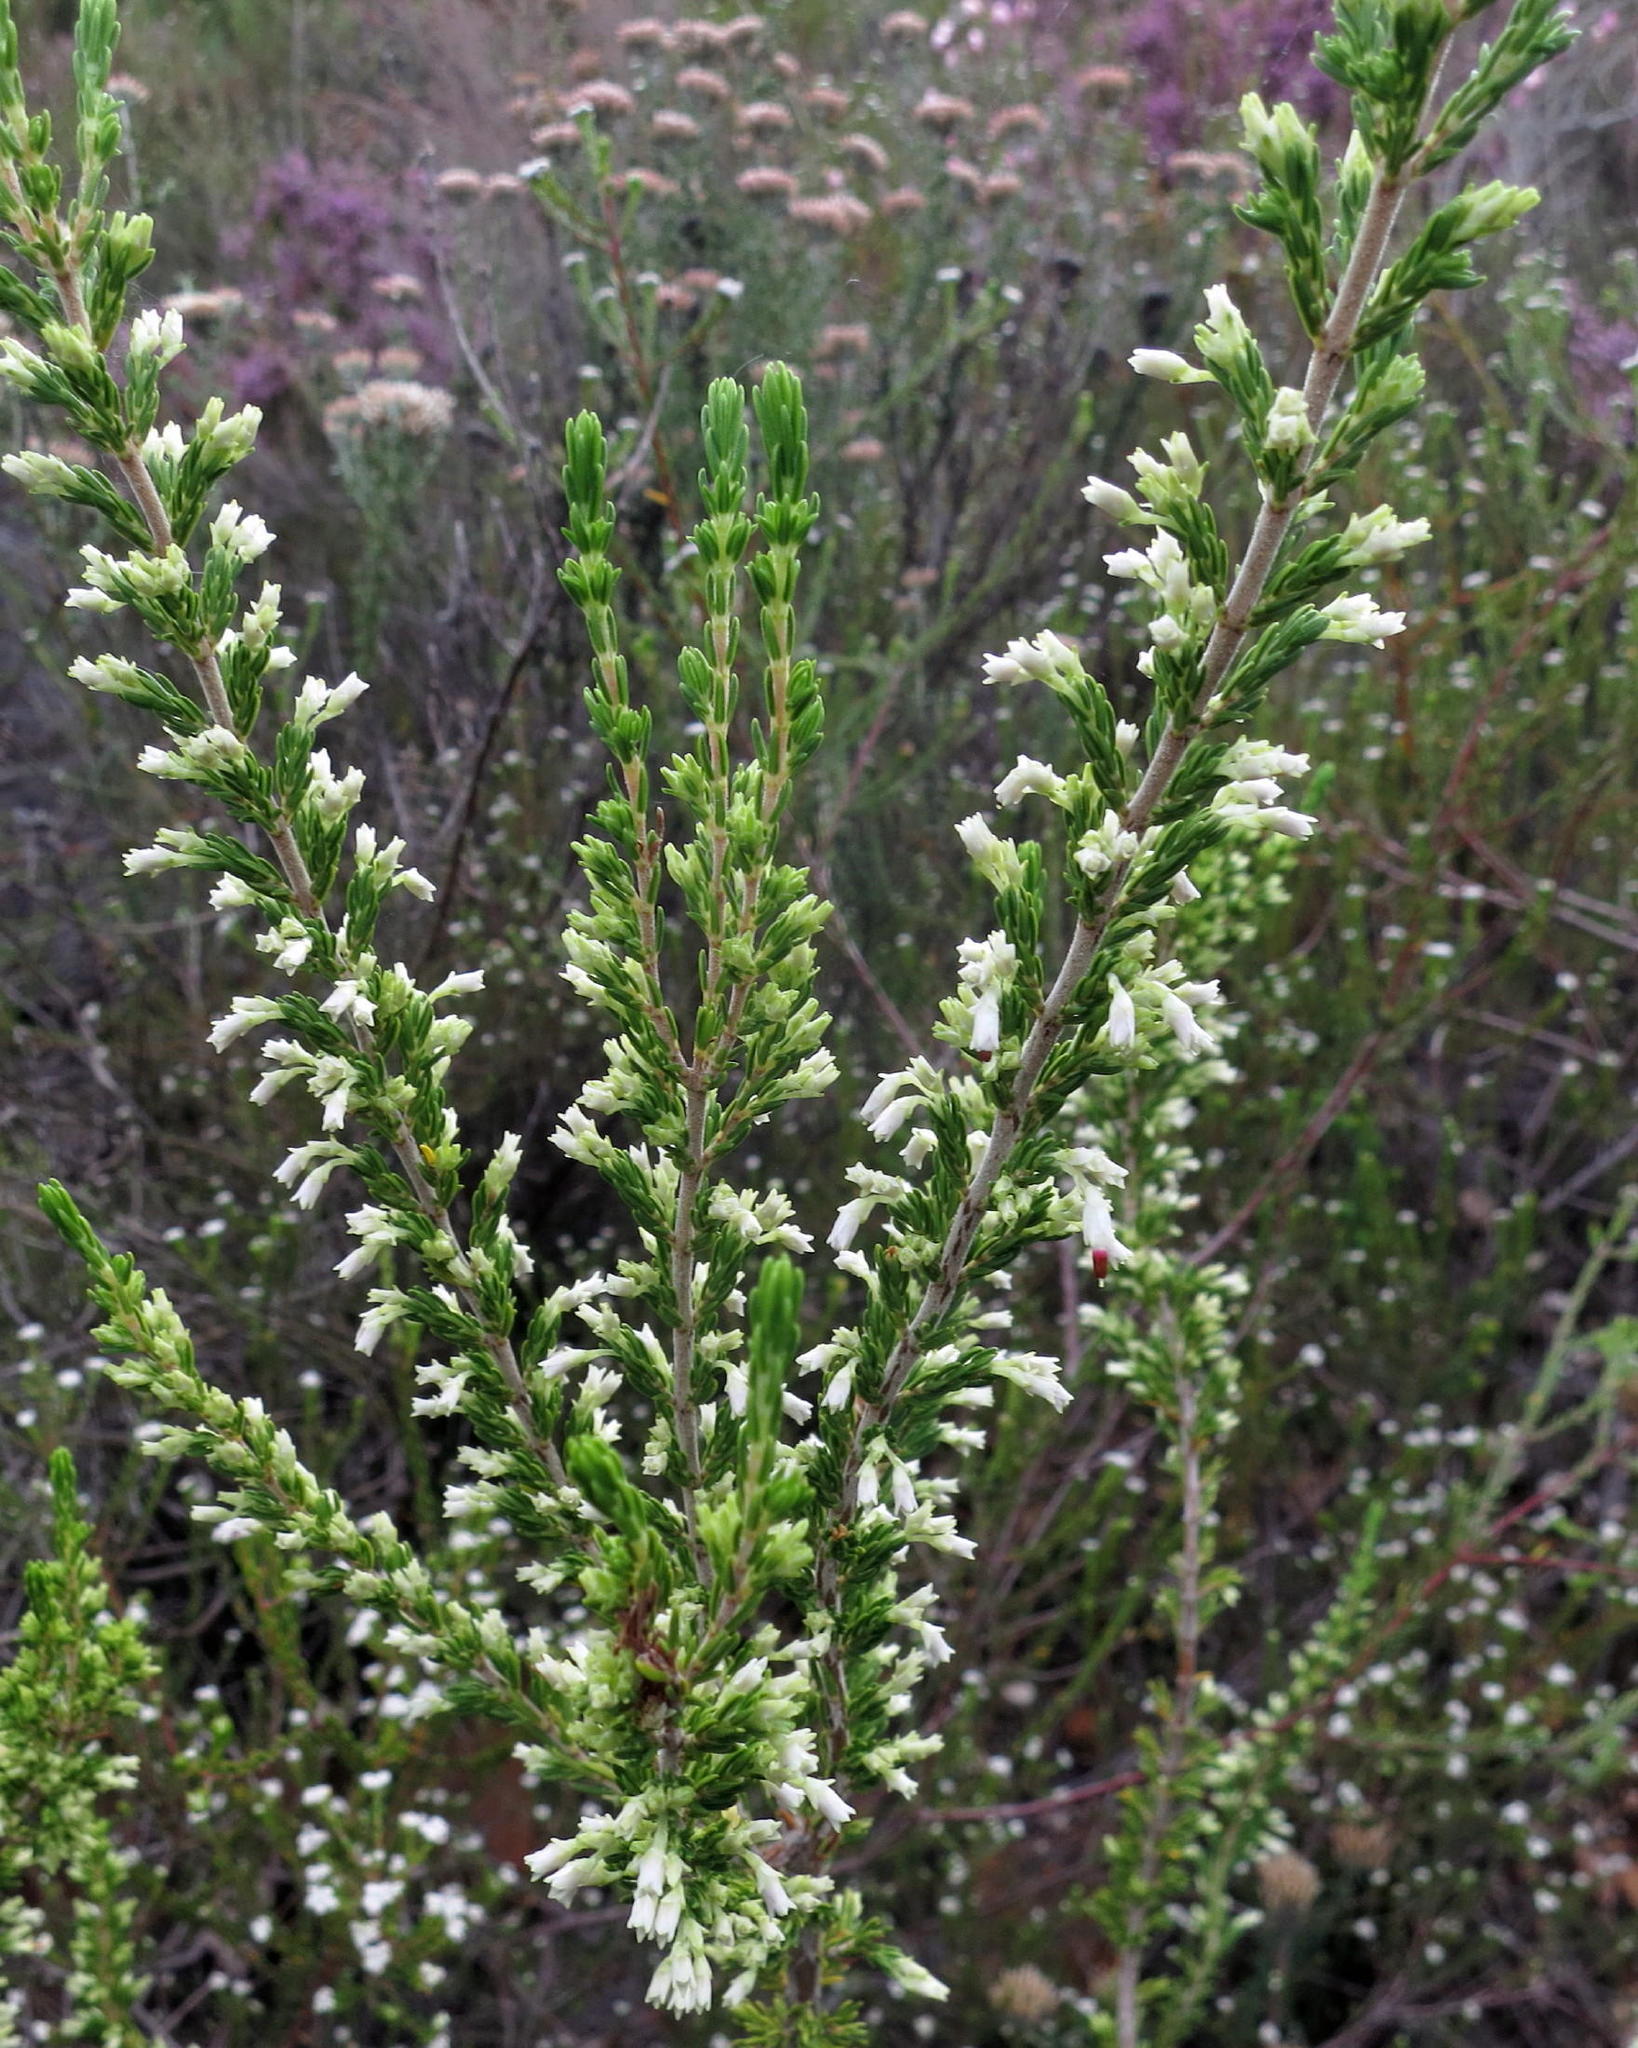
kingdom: Plantae
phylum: Tracheophyta
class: Magnoliopsida
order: Ericales
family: Ericaceae
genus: Erica
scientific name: Erica imbricata
